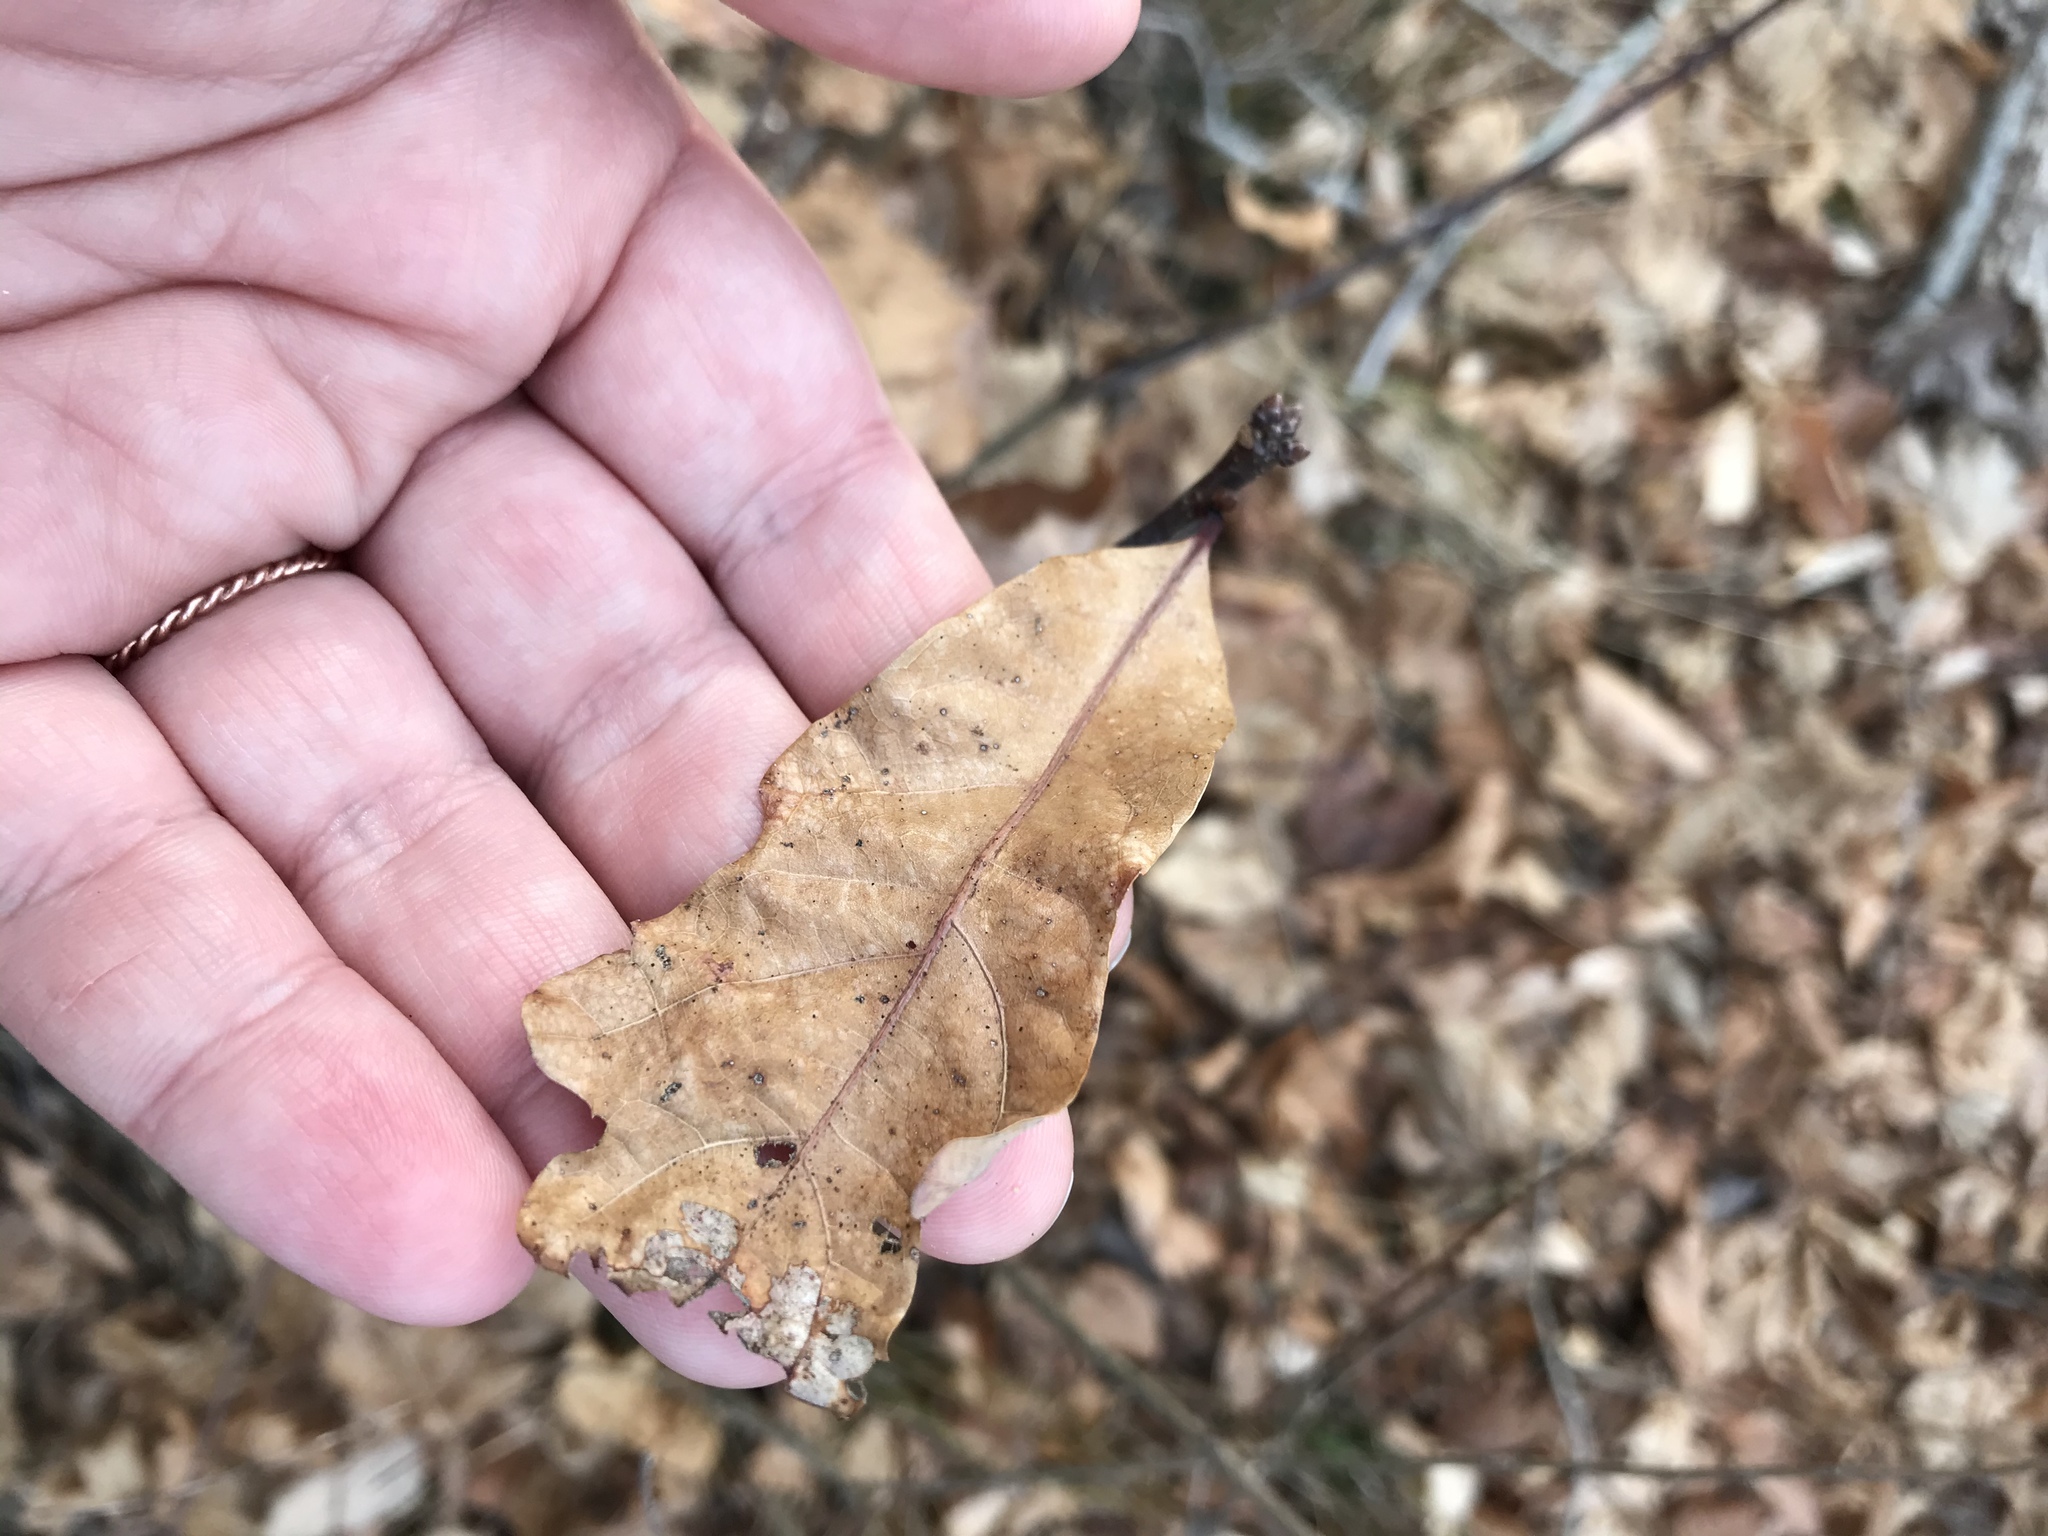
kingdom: Animalia
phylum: Arthropoda
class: Insecta
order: Hymenoptera
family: Cynipidae
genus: Neuroterus
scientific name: Neuroterus quercusbaccarum
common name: Common spangle gall
